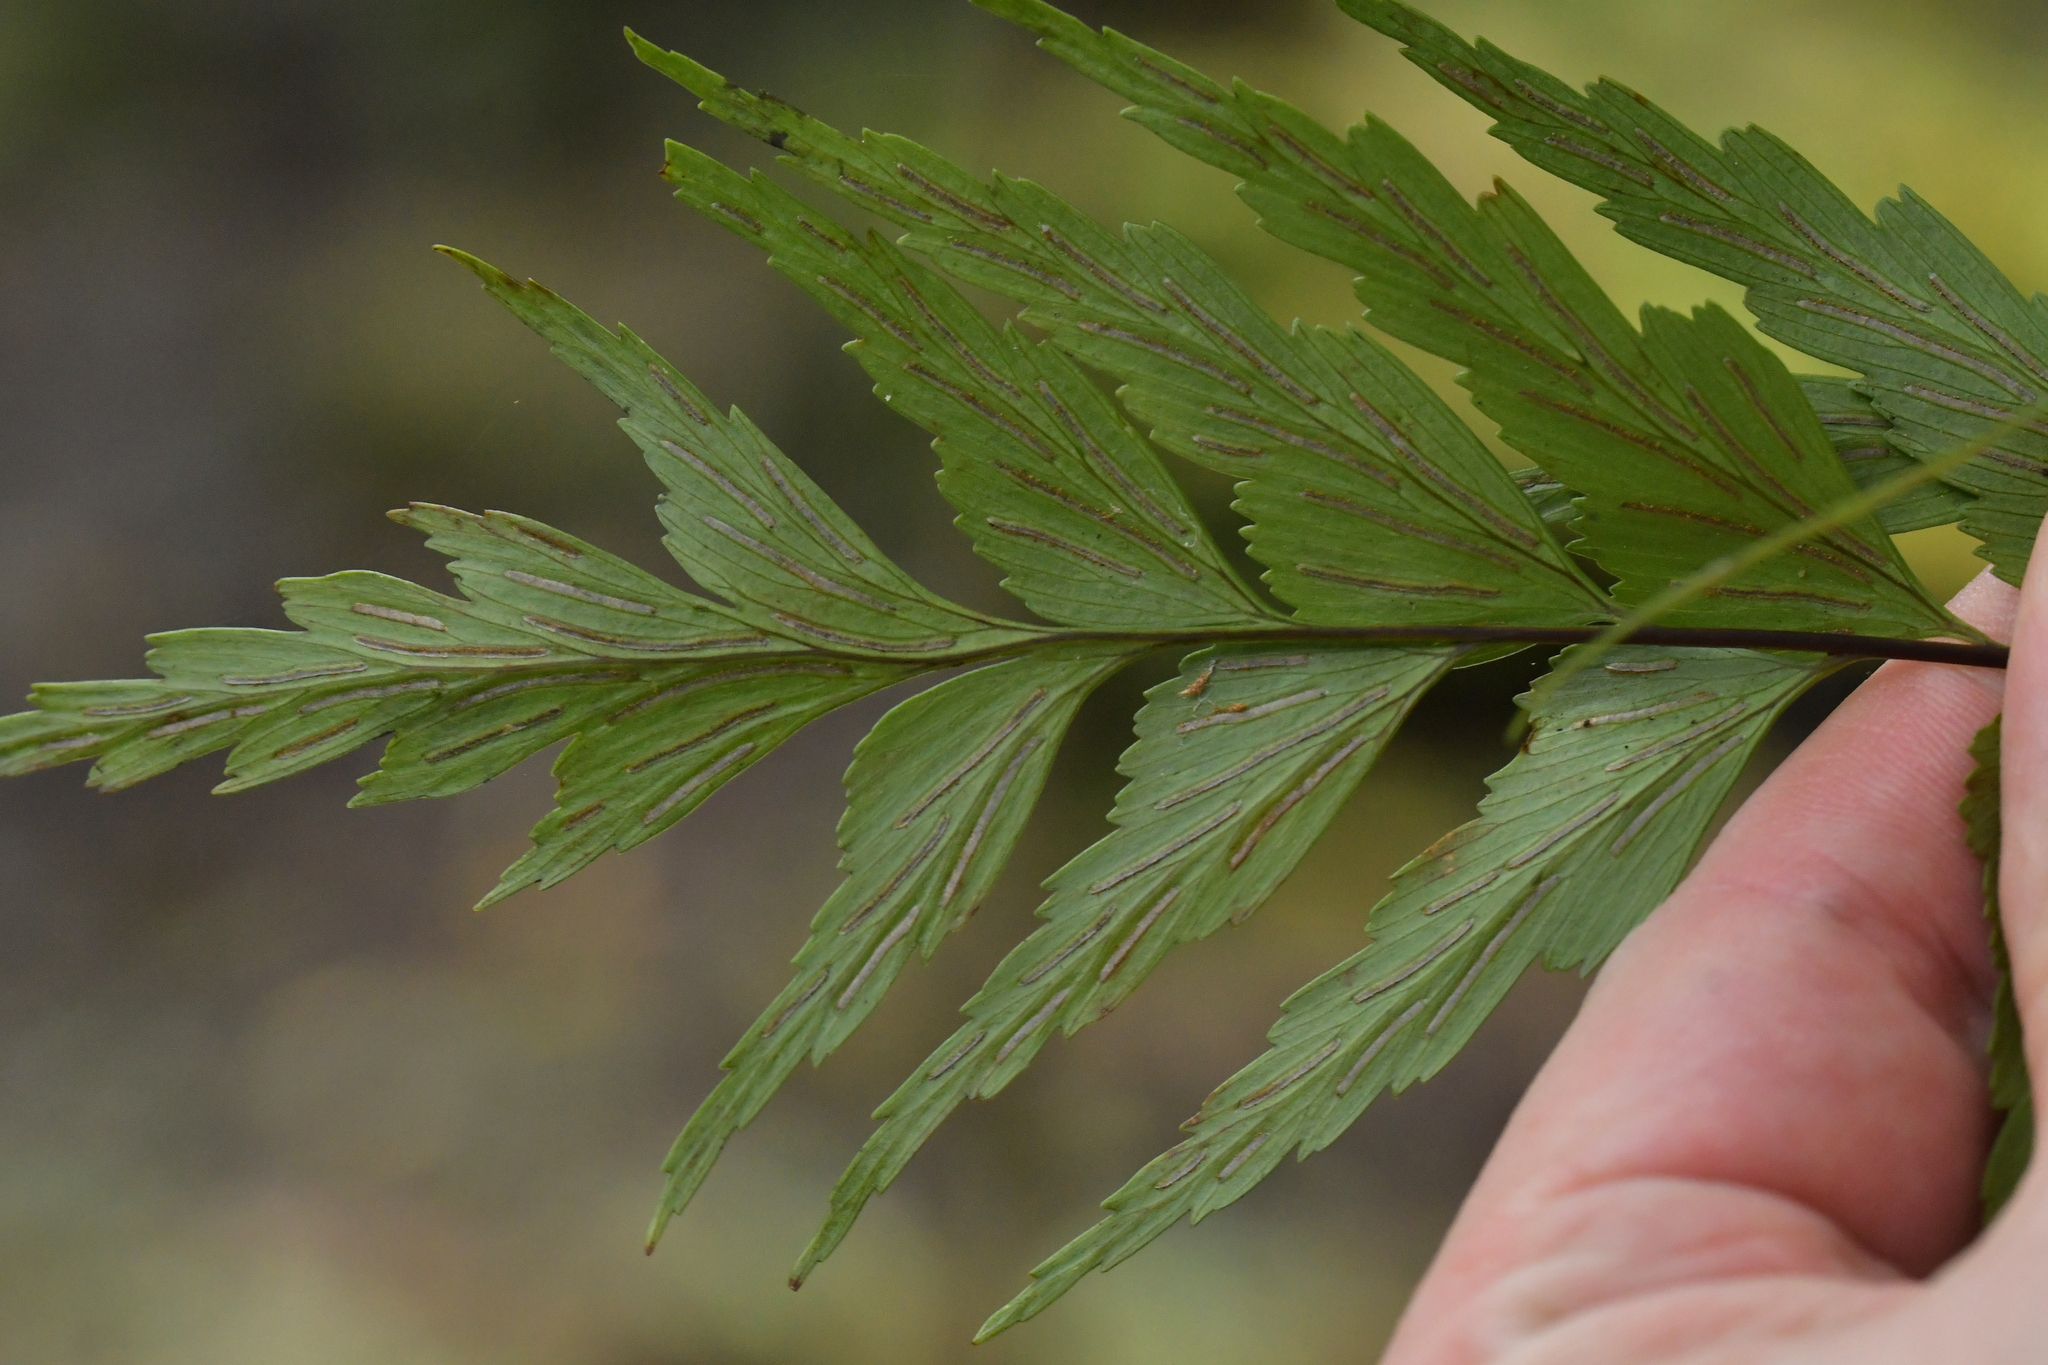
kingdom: Plantae
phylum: Tracheophyta
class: Polypodiopsida
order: Polypodiales
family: Aspleniaceae
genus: Asplenium
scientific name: Asplenium polyodon
